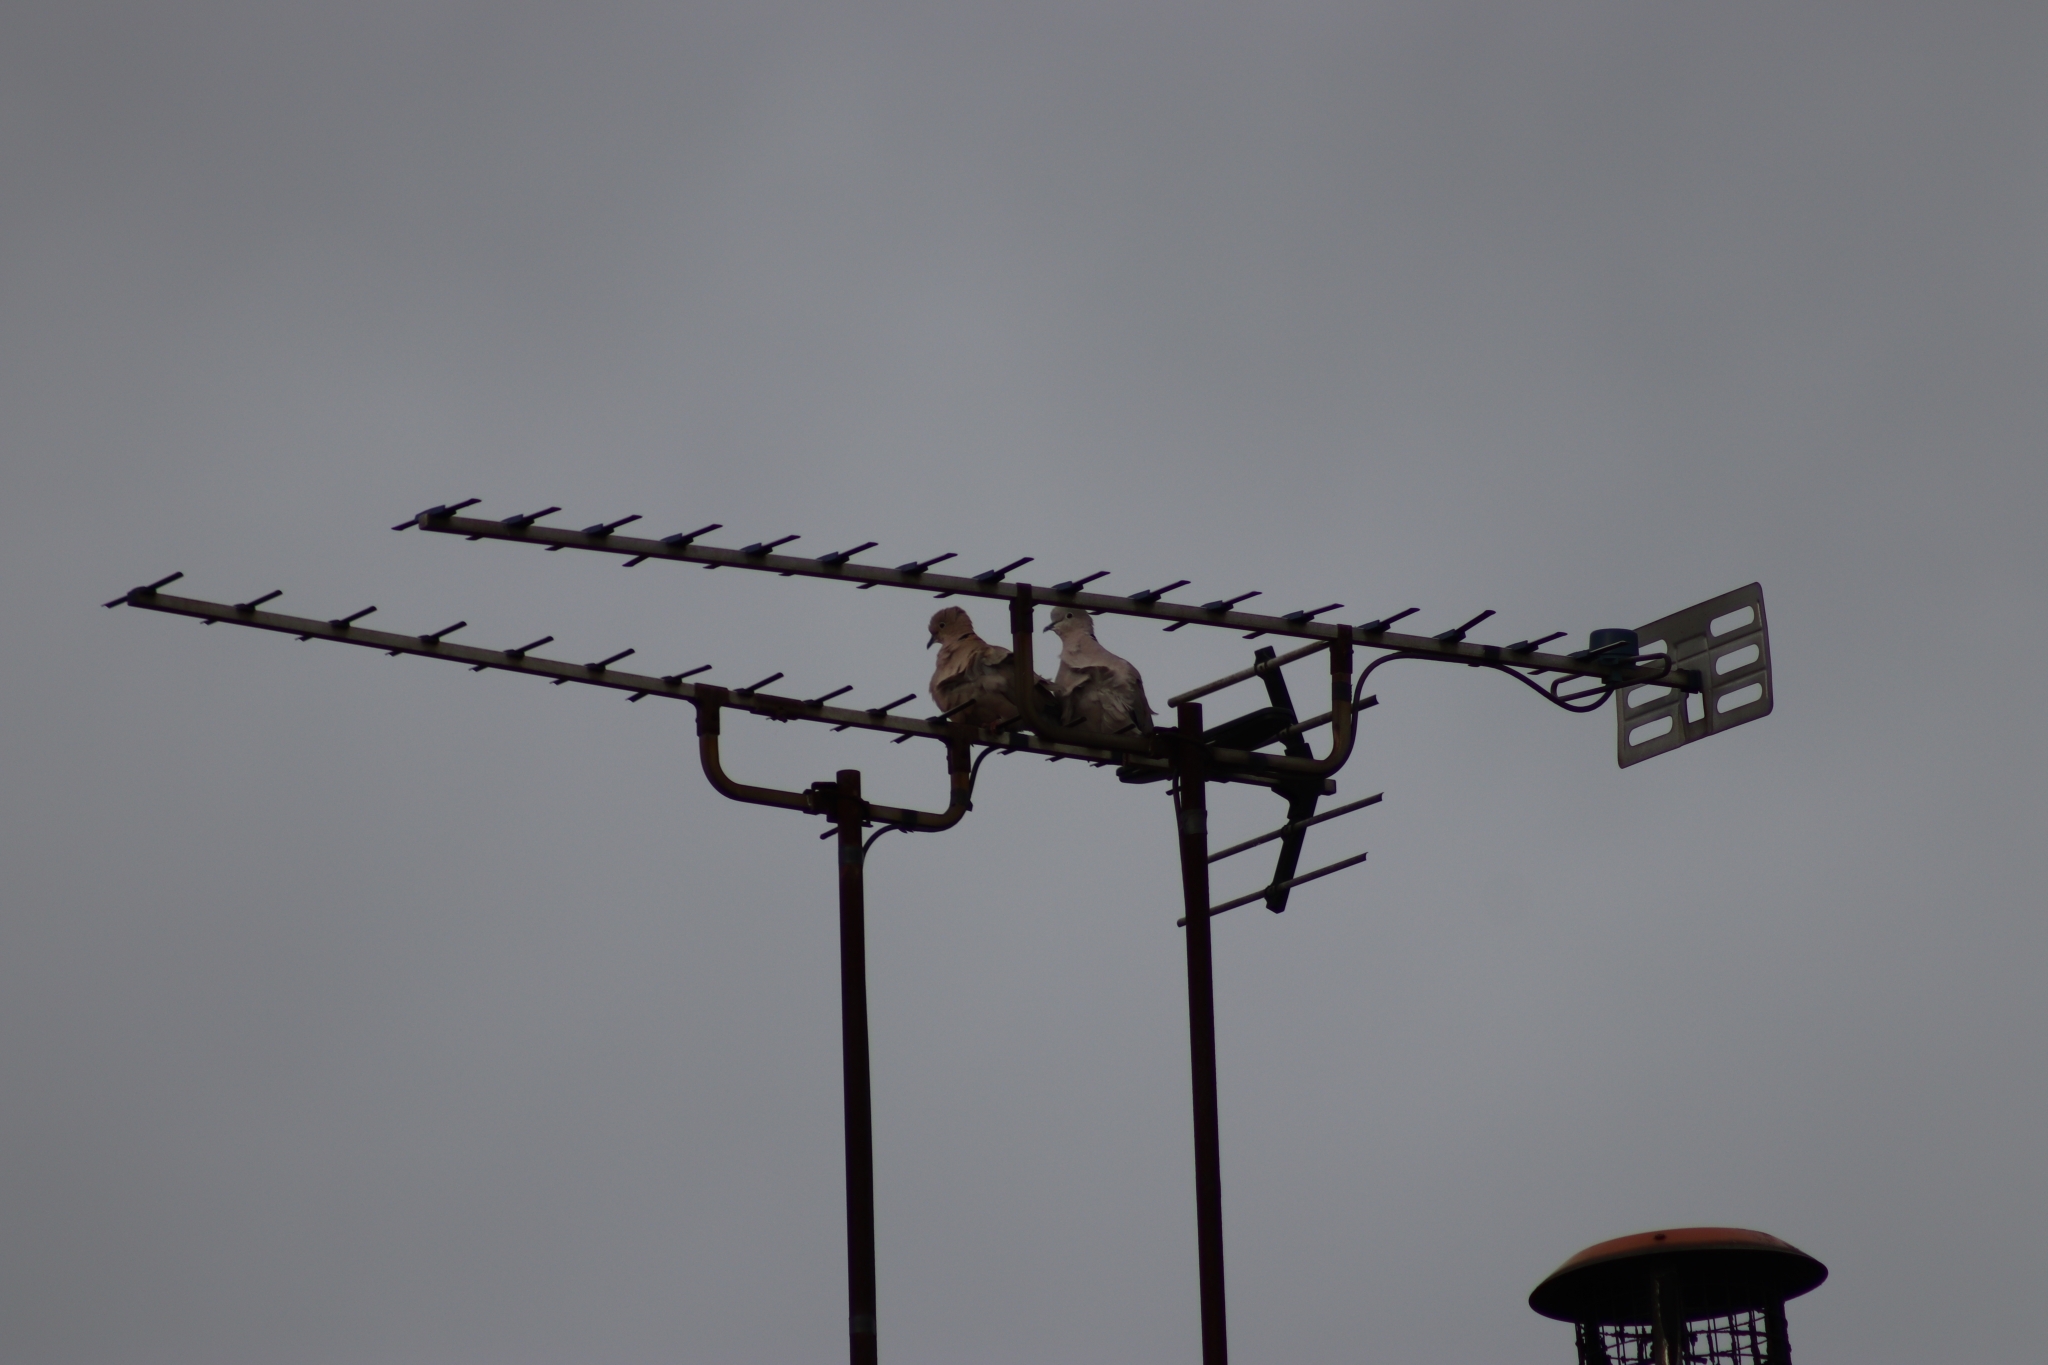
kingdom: Animalia
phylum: Chordata
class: Aves
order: Columbiformes
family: Columbidae
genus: Streptopelia
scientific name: Streptopelia decaocto
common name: Eurasian collared dove
